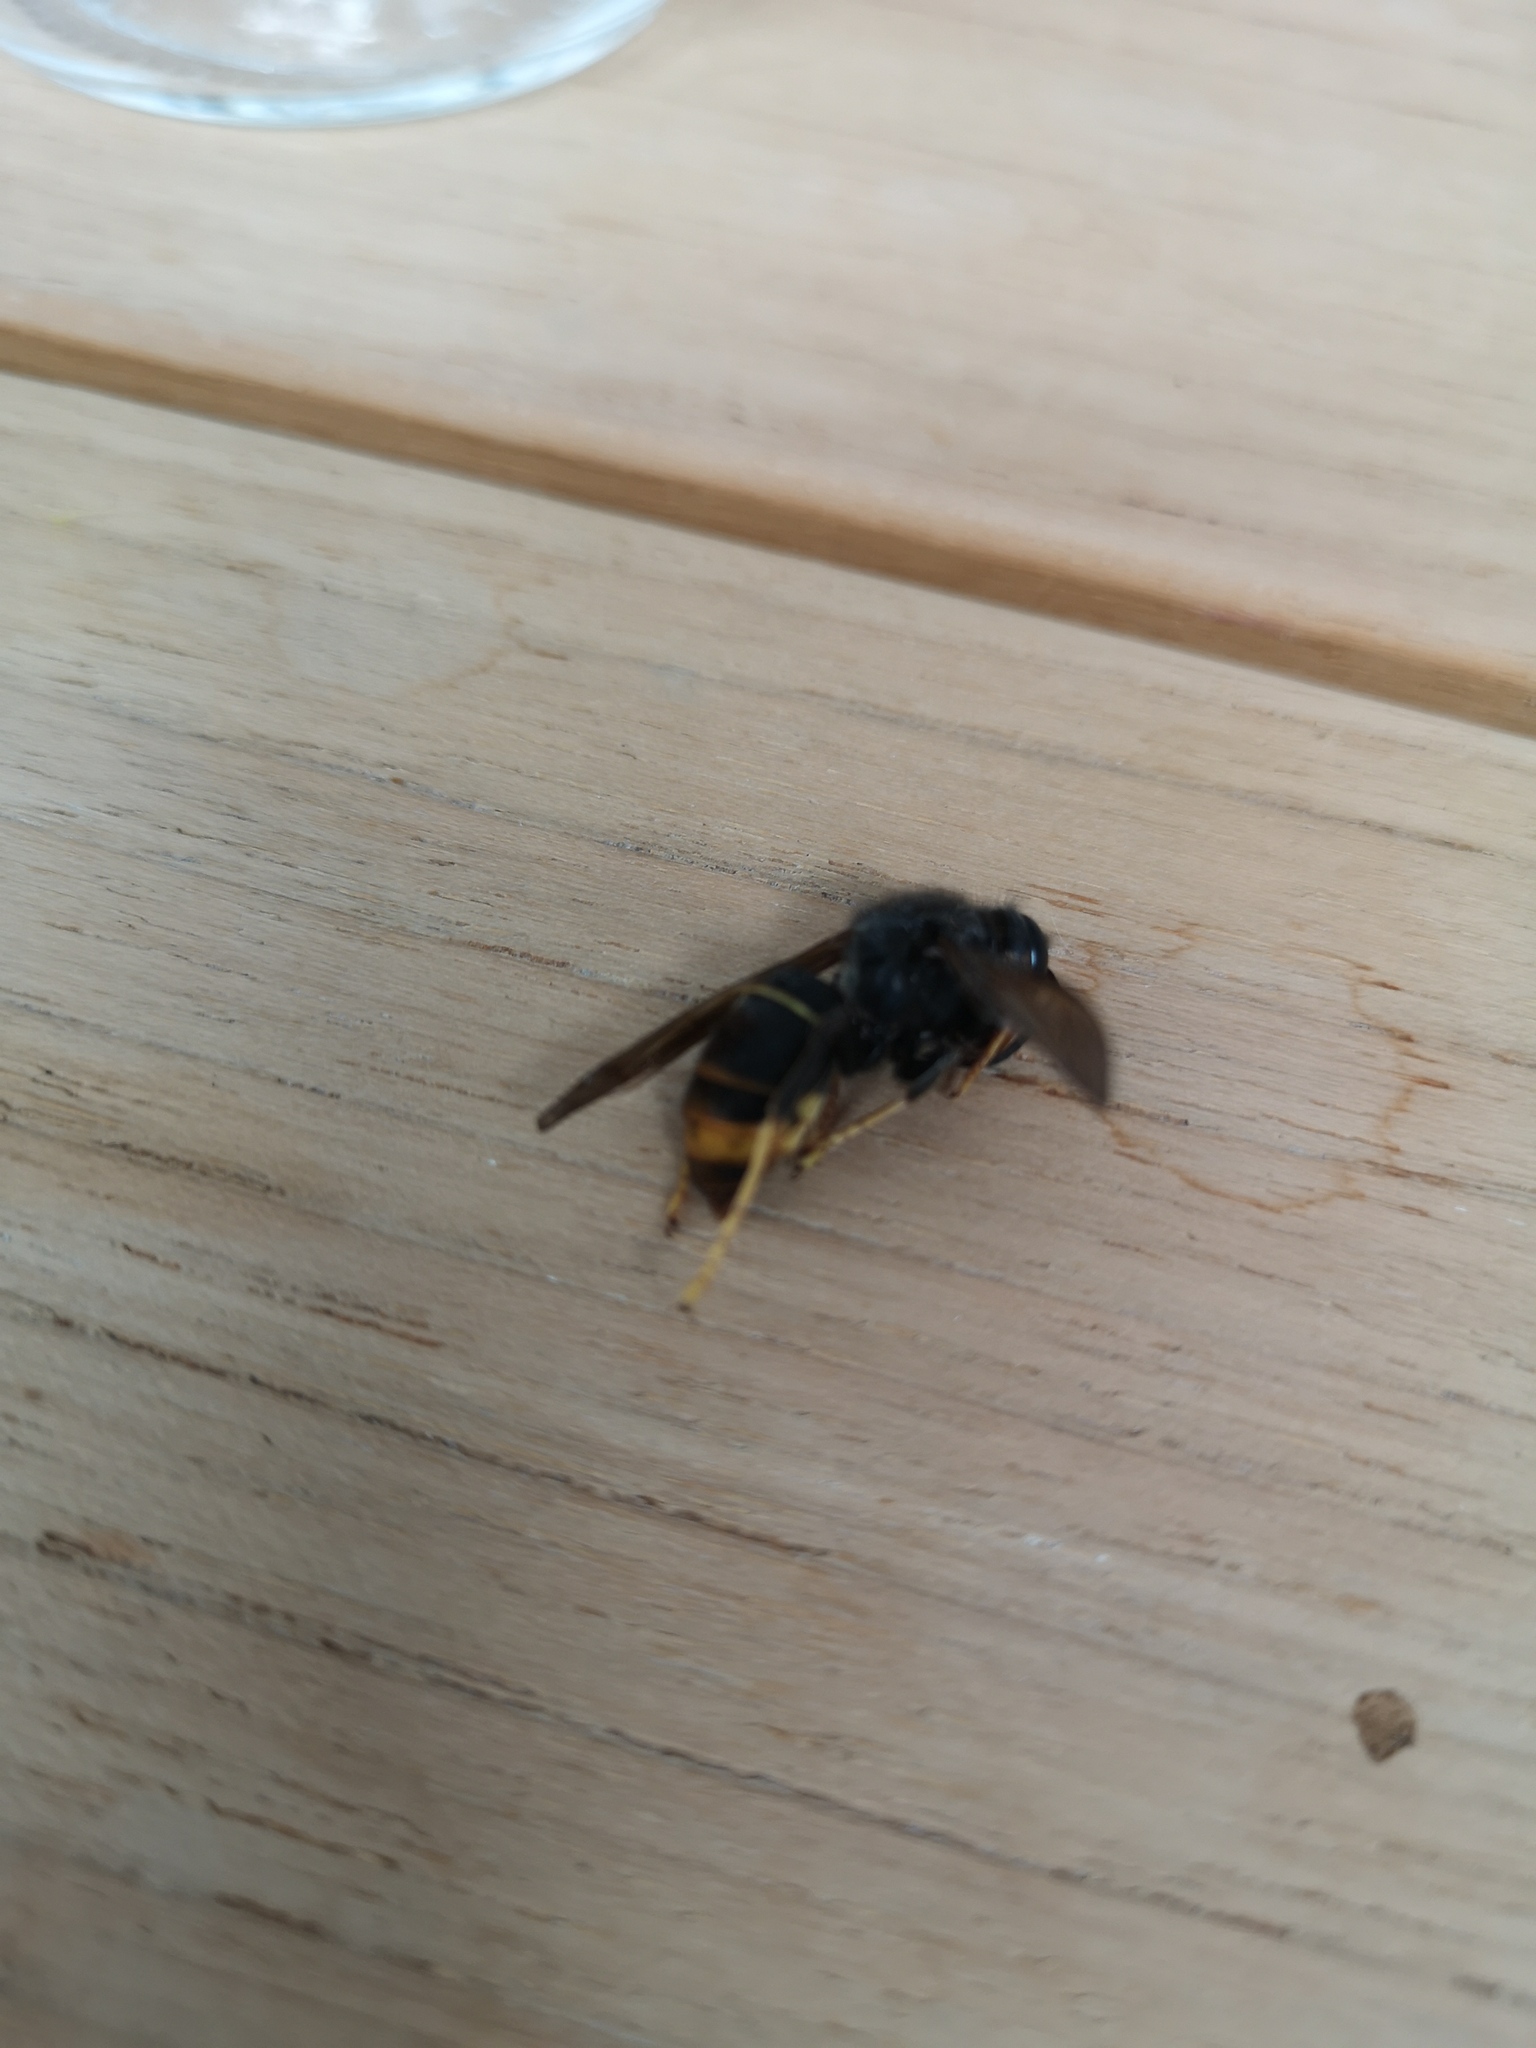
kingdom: Animalia
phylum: Arthropoda
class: Insecta
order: Hymenoptera
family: Vespidae
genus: Vespa
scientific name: Vespa velutina
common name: Asian hornet
